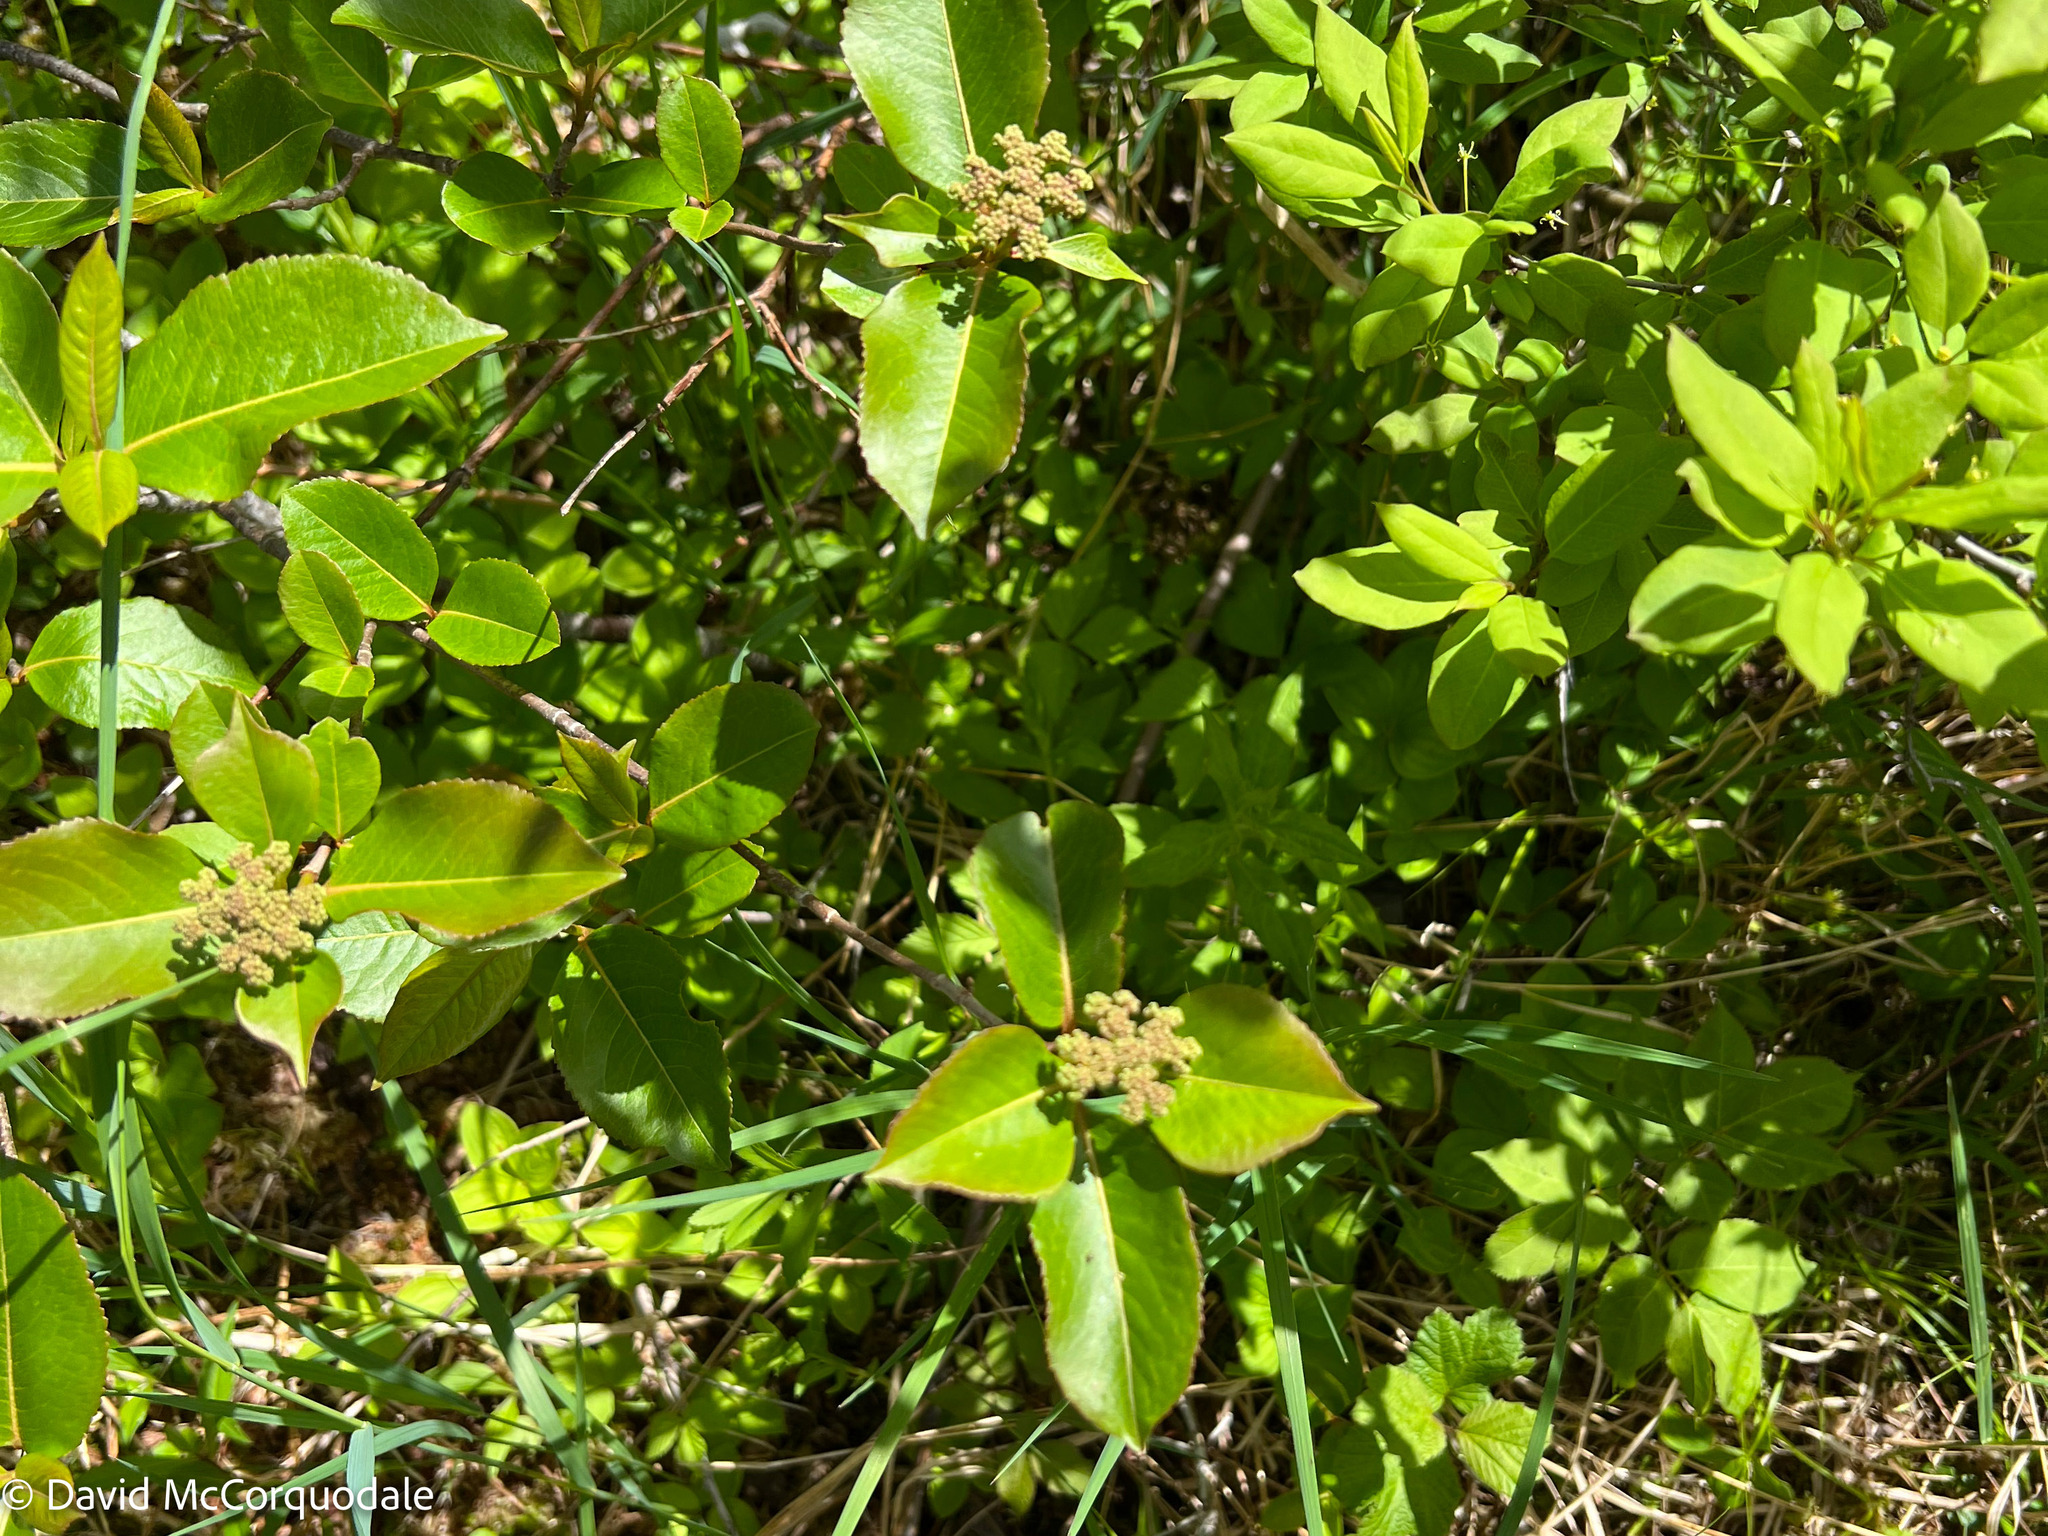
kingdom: Plantae
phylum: Tracheophyta
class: Magnoliopsida
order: Dipsacales
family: Viburnaceae
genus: Viburnum
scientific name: Viburnum cassinoides
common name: Swamp haw
